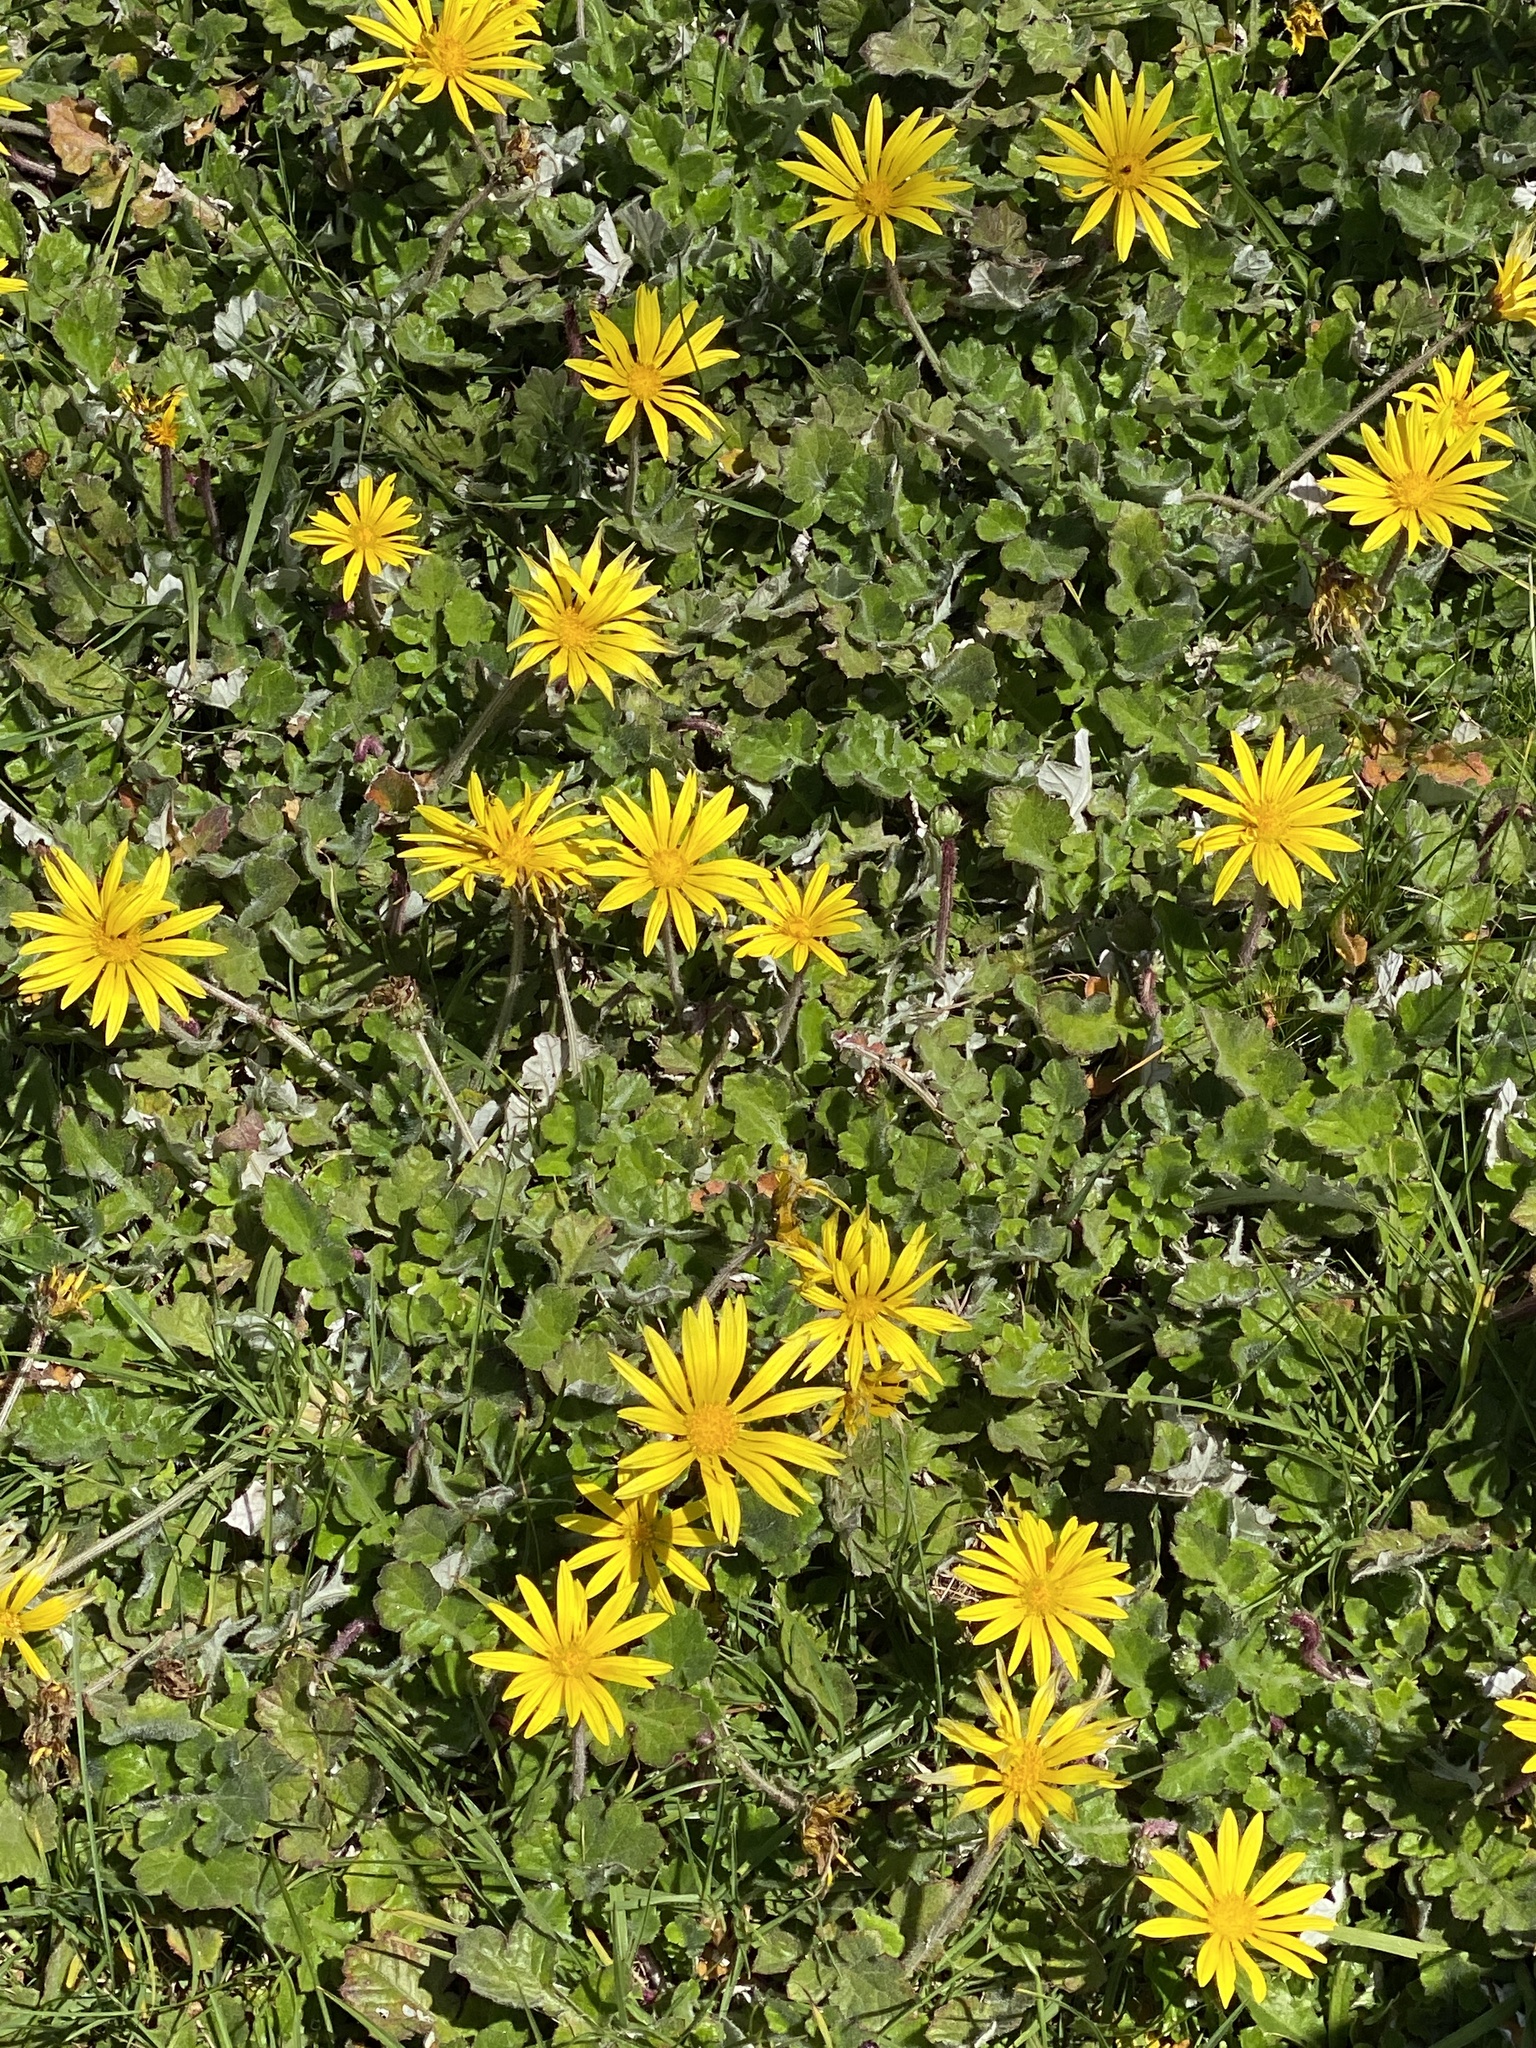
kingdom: Plantae
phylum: Tracheophyta
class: Magnoliopsida
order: Asterales
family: Asteraceae
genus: Arctotheca
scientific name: Arctotheca prostrata
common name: Capeweed
